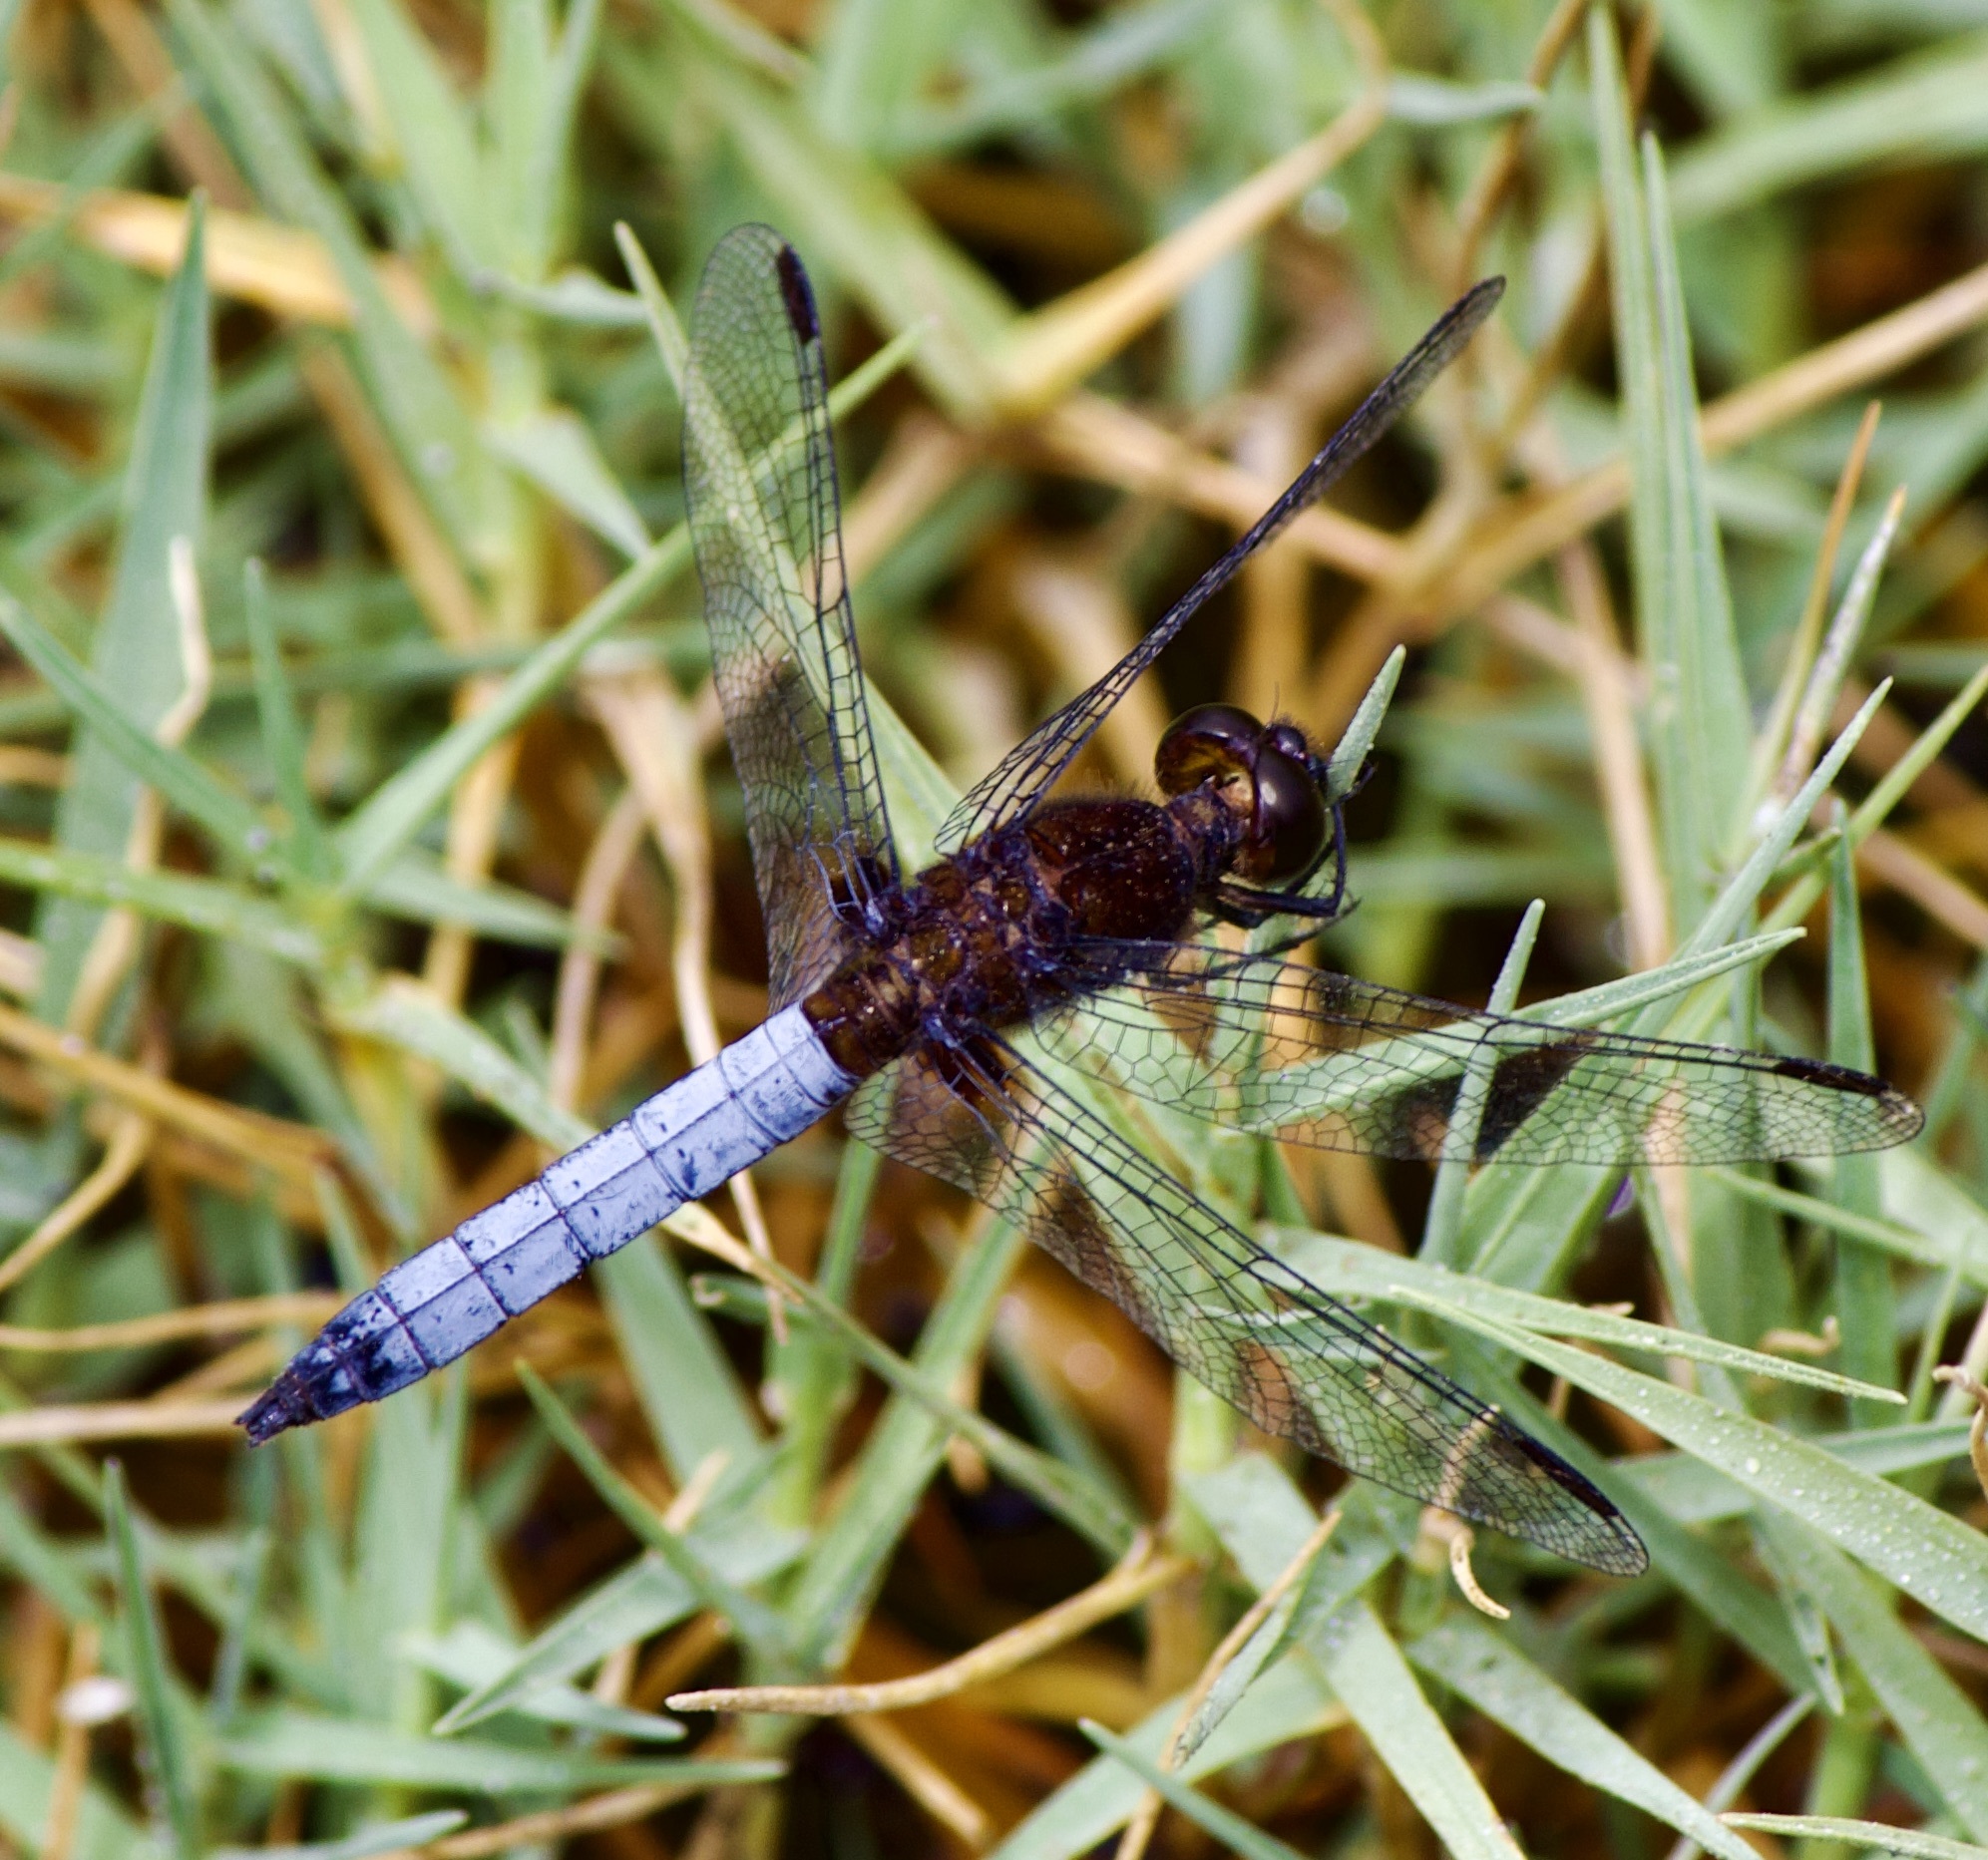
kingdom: Animalia
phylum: Arthropoda
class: Insecta
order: Odonata
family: Libellulidae
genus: Erythrodiplax
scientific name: Erythrodiplax connata
